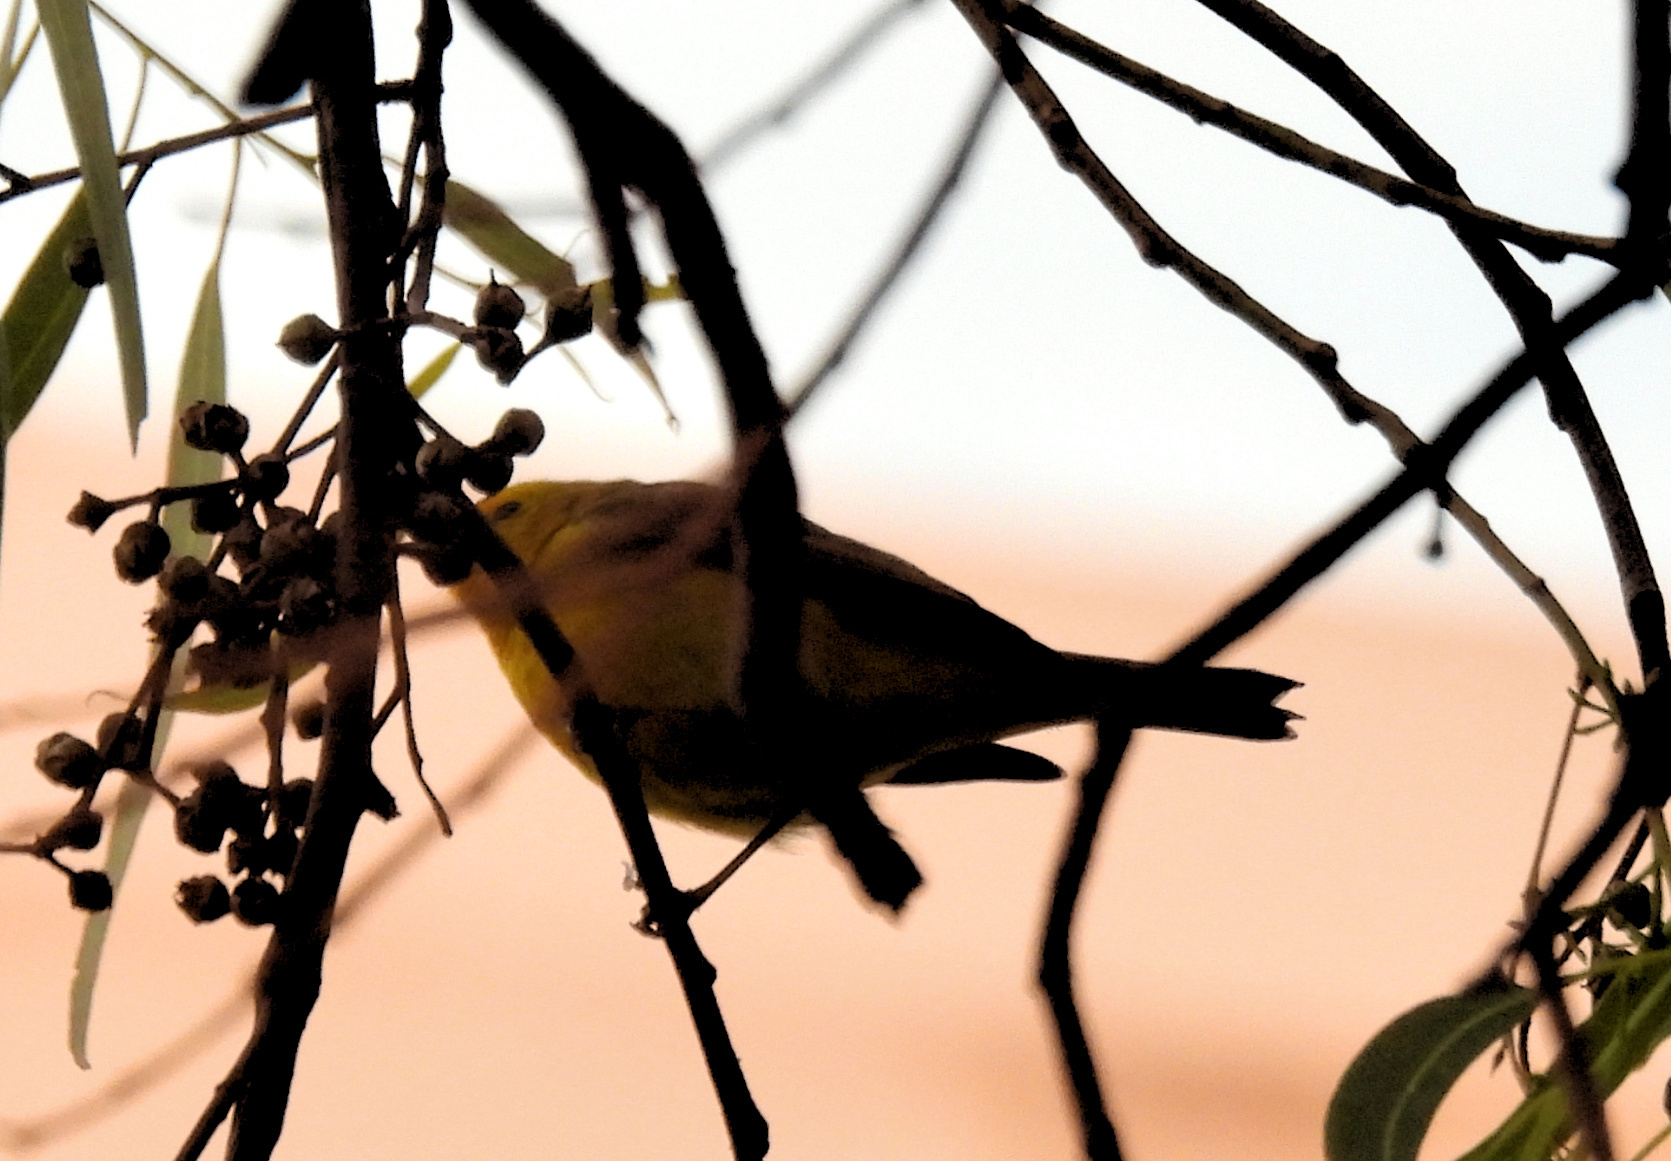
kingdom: Animalia
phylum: Chordata
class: Aves
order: Passeriformes
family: Parulidae
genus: Cardellina
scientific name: Cardellina pusilla
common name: Wilson's warbler
